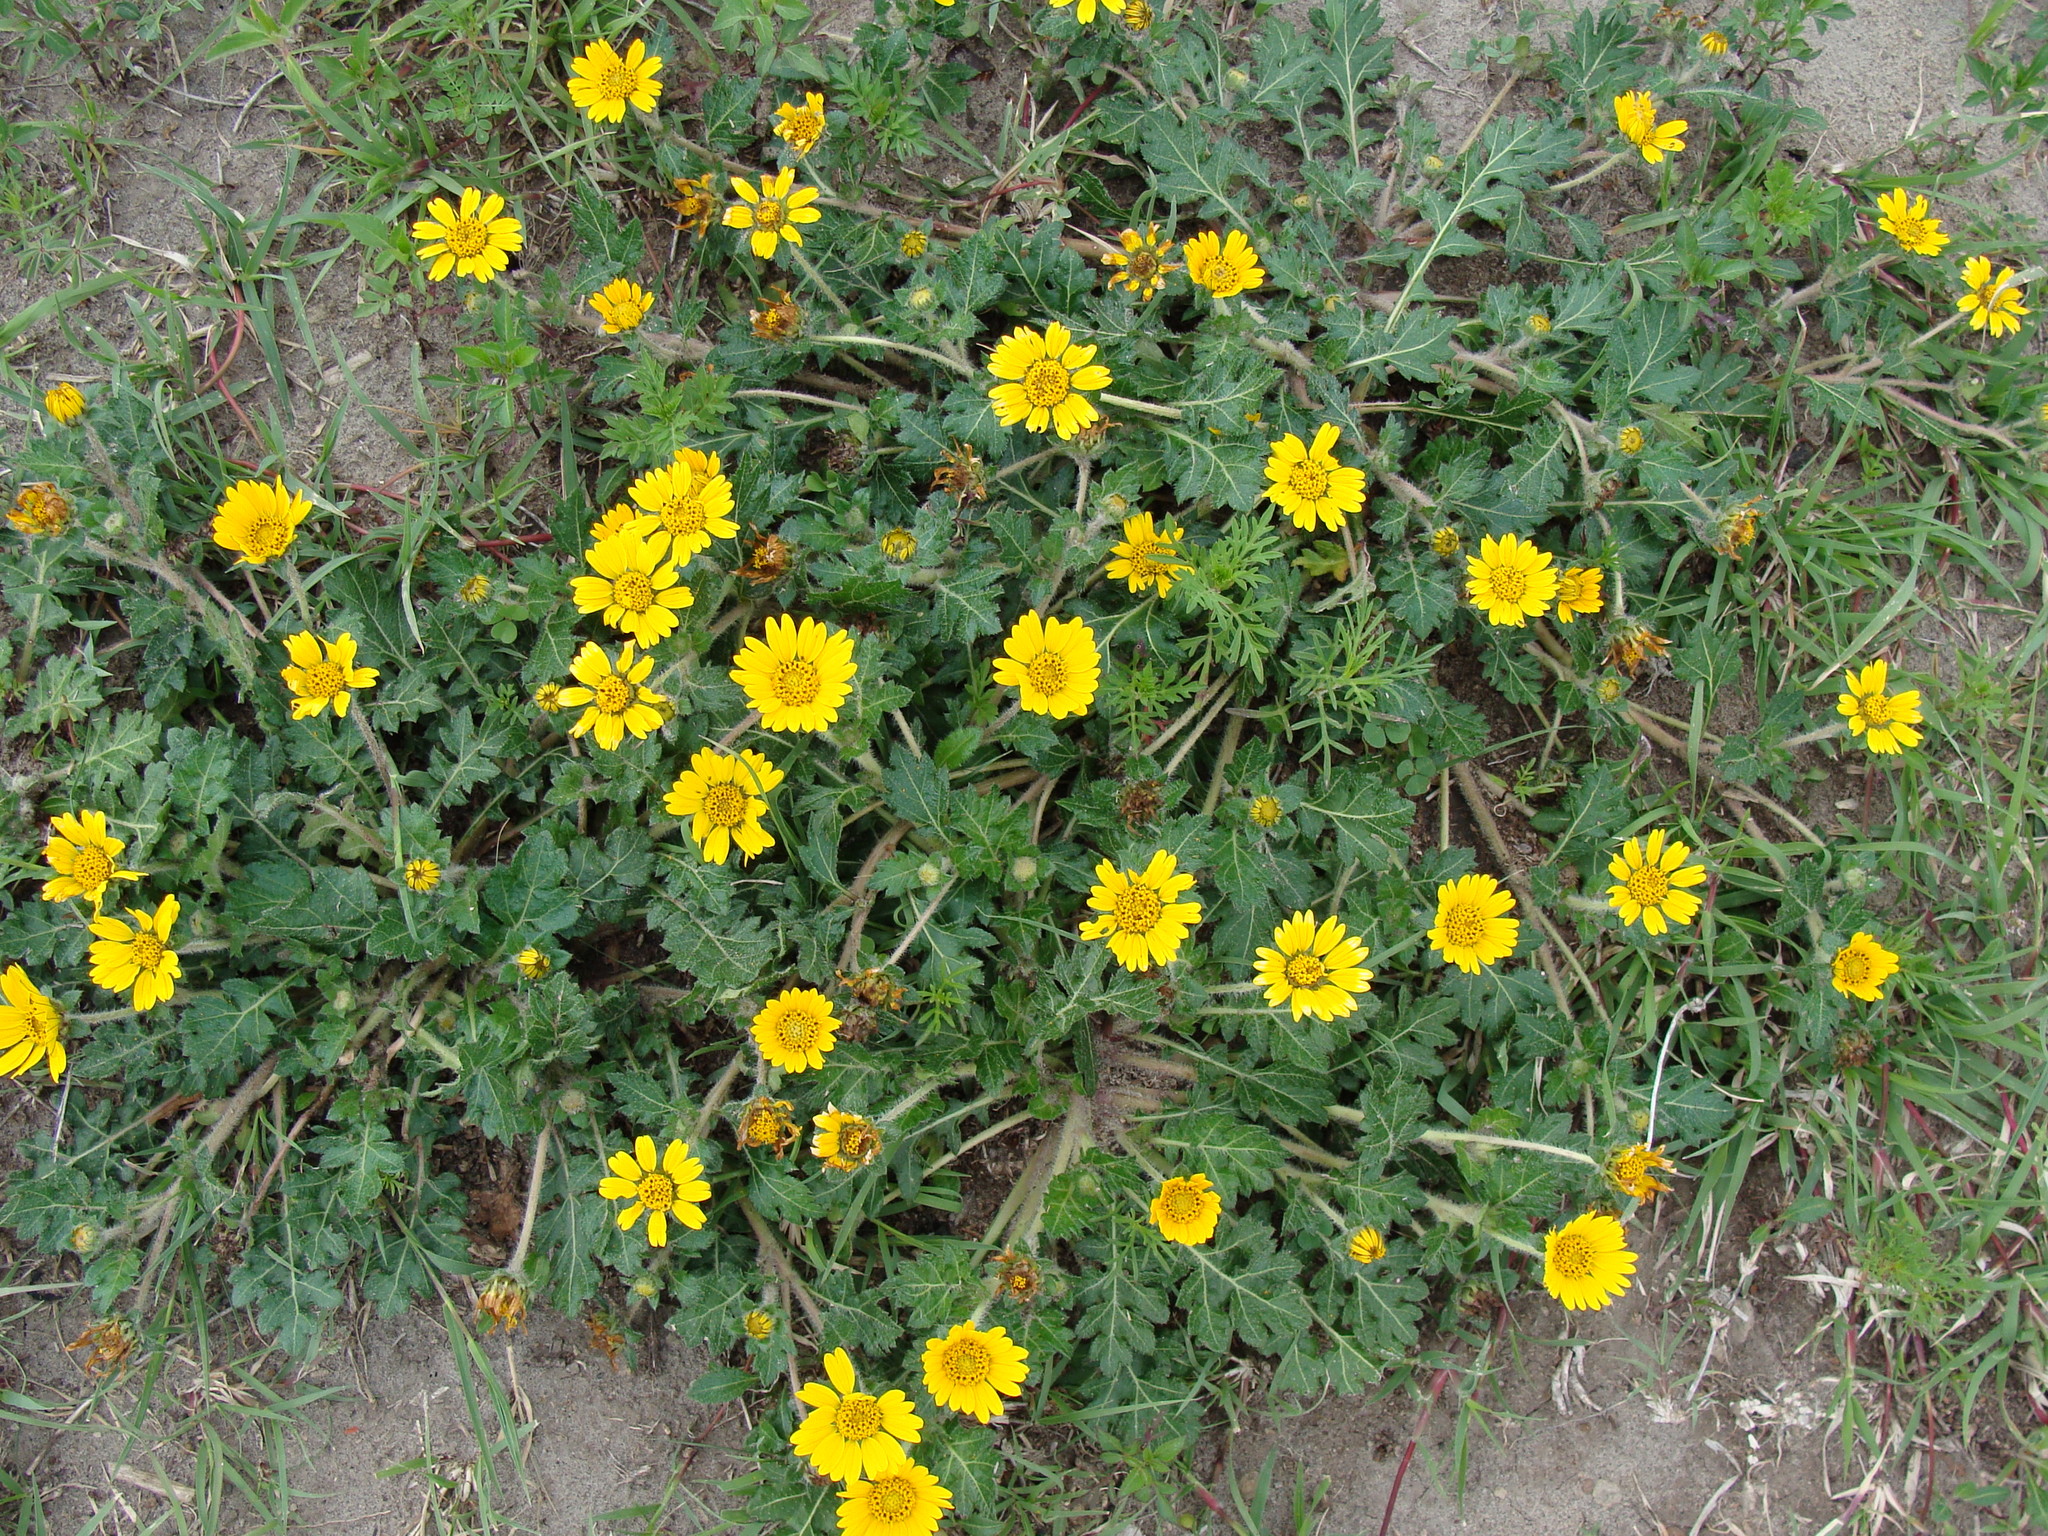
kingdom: Plantae
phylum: Tracheophyta
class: Magnoliopsida
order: Asterales
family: Asteraceae
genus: Dugesia
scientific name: Dugesia mexicana
